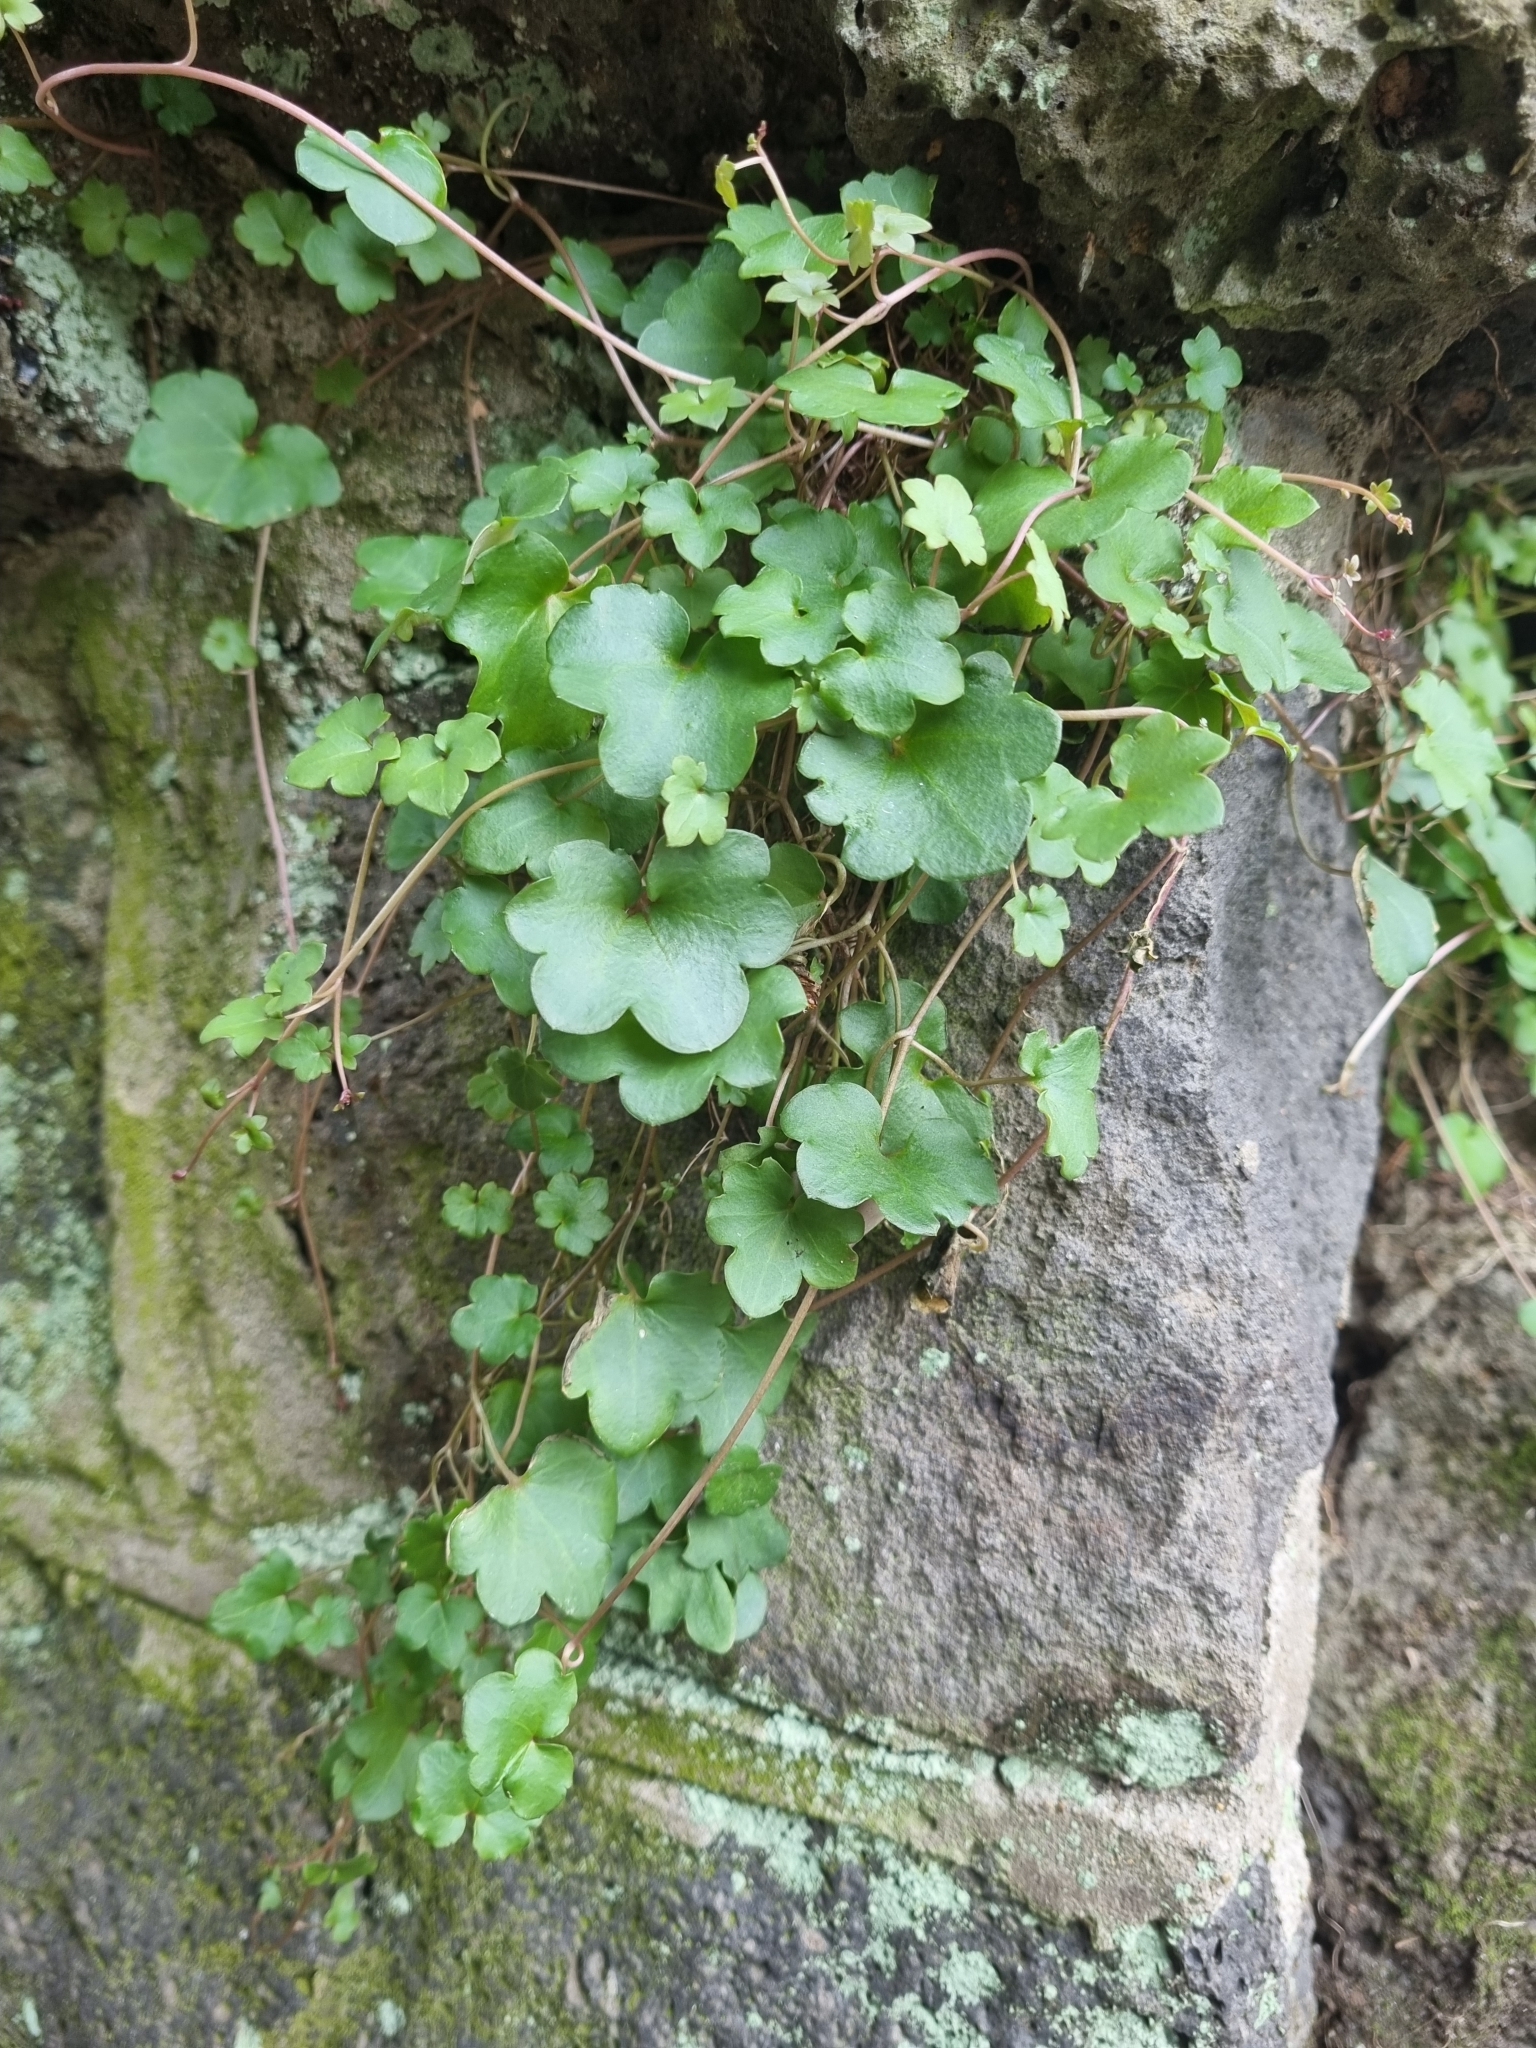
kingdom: Plantae
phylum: Tracheophyta
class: Magnoliopsida
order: Lamiales
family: Plantaginaceae
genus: Cymbalaria
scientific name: Cymbalaria muralis
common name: Ivy-leaved toadflax
